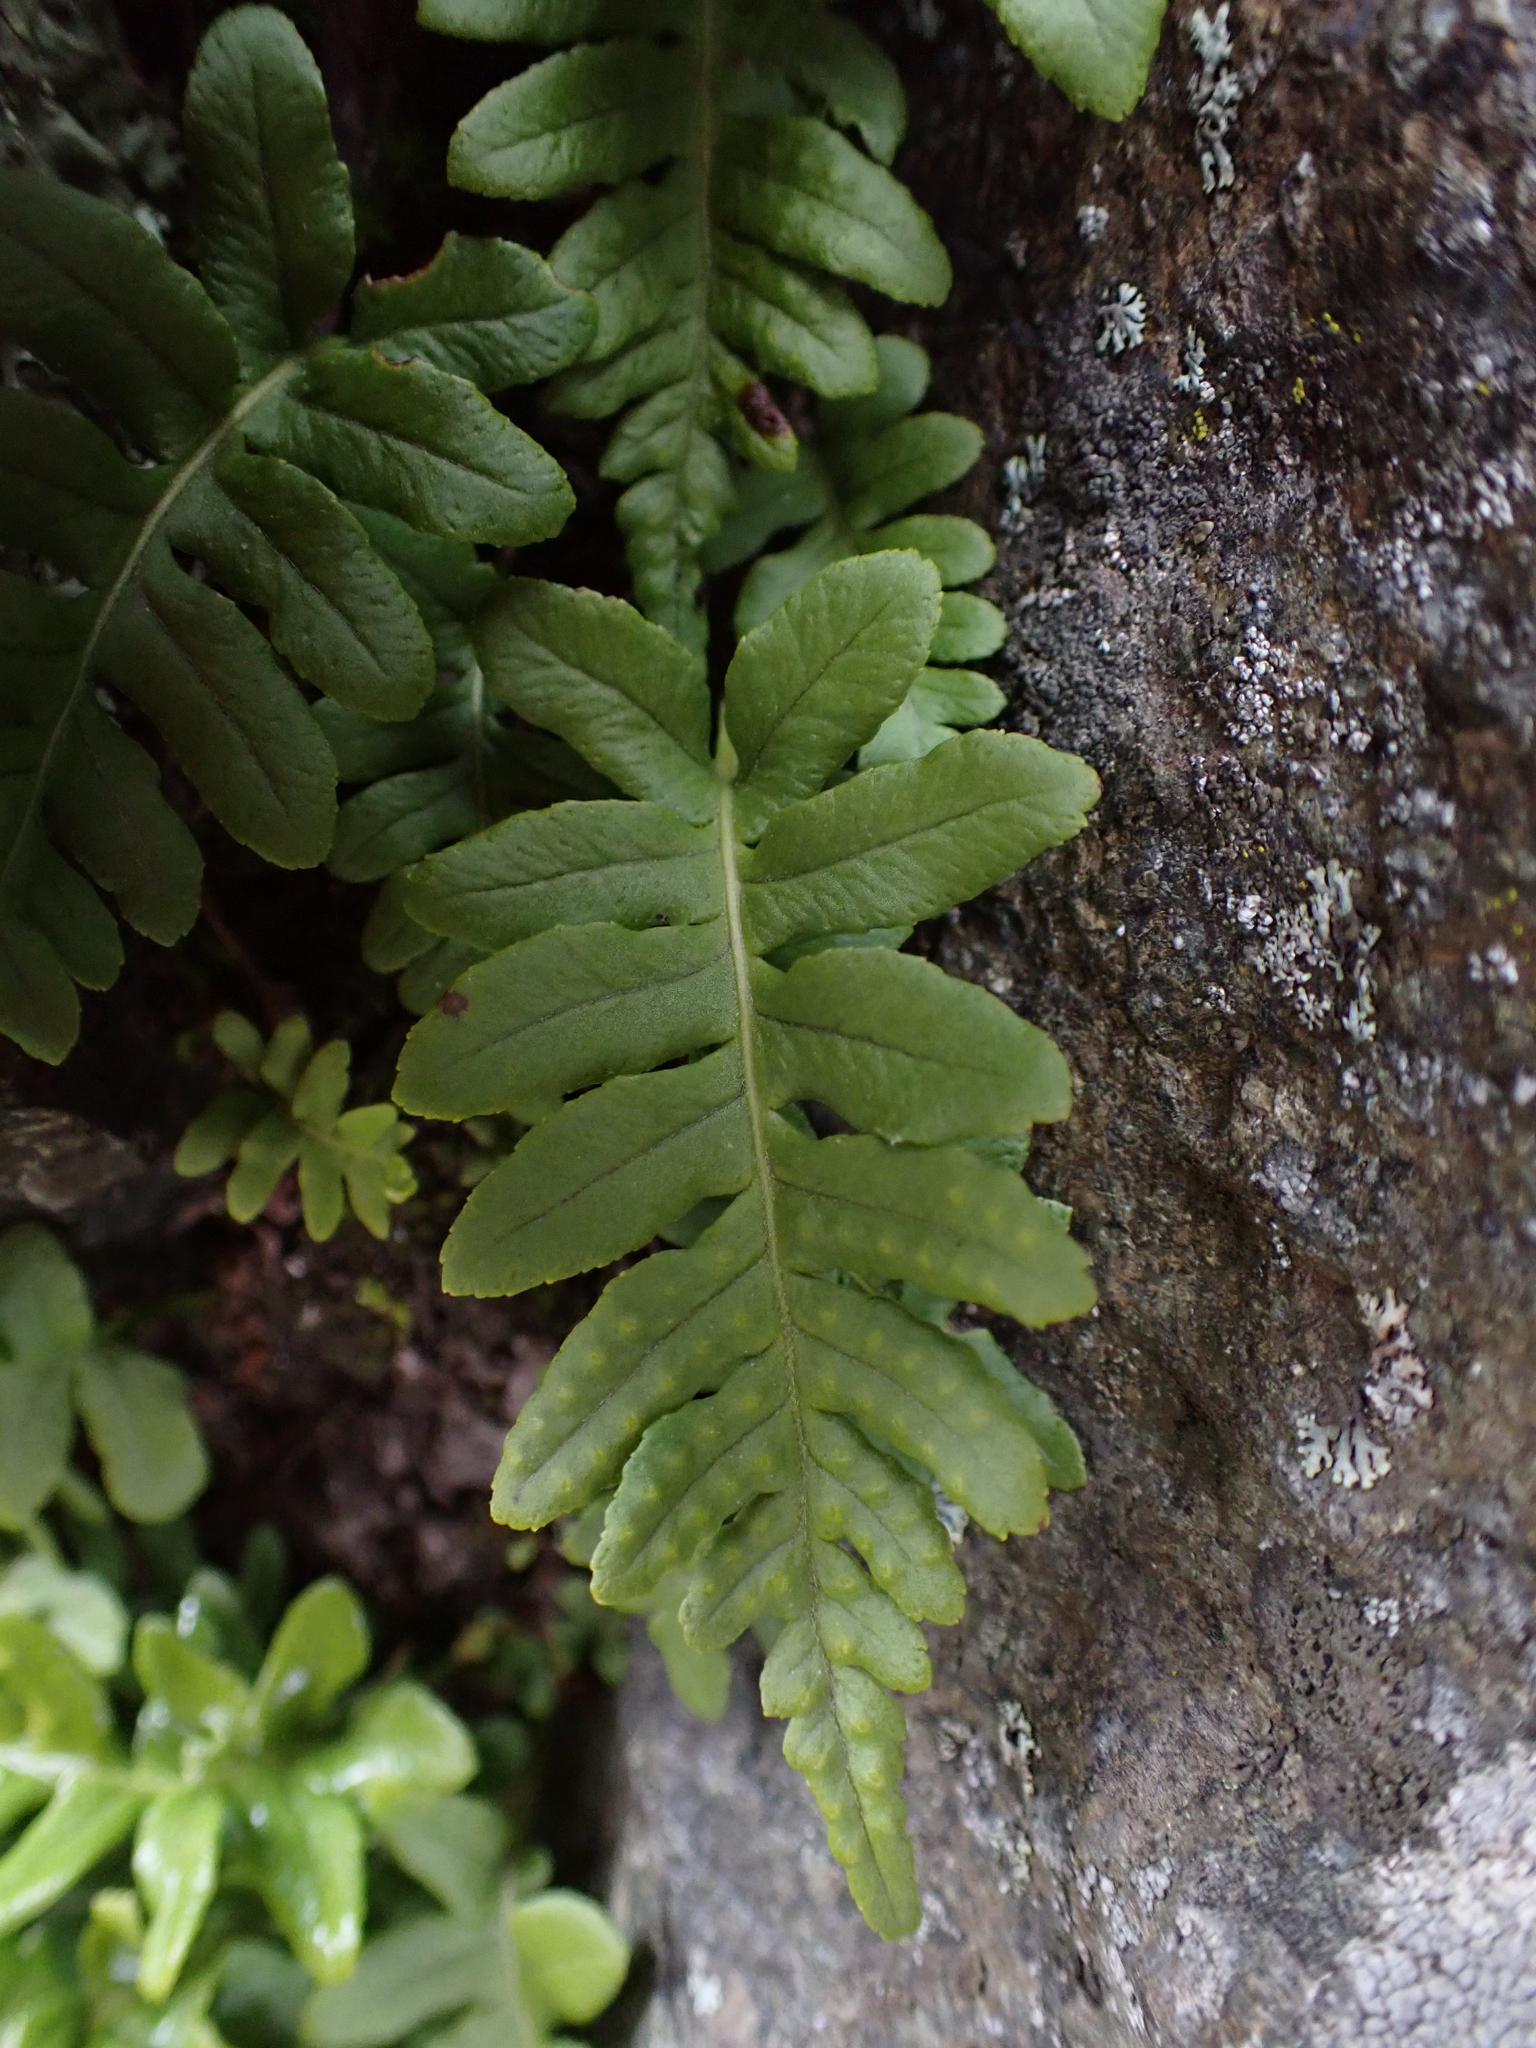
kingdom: Plantae
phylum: Tracheophyta
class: Polypodiopsida
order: Polypodiales
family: Polypodiaceae
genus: Polypodium
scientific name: Polypodium glycyrrhiza
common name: Licorice fern
